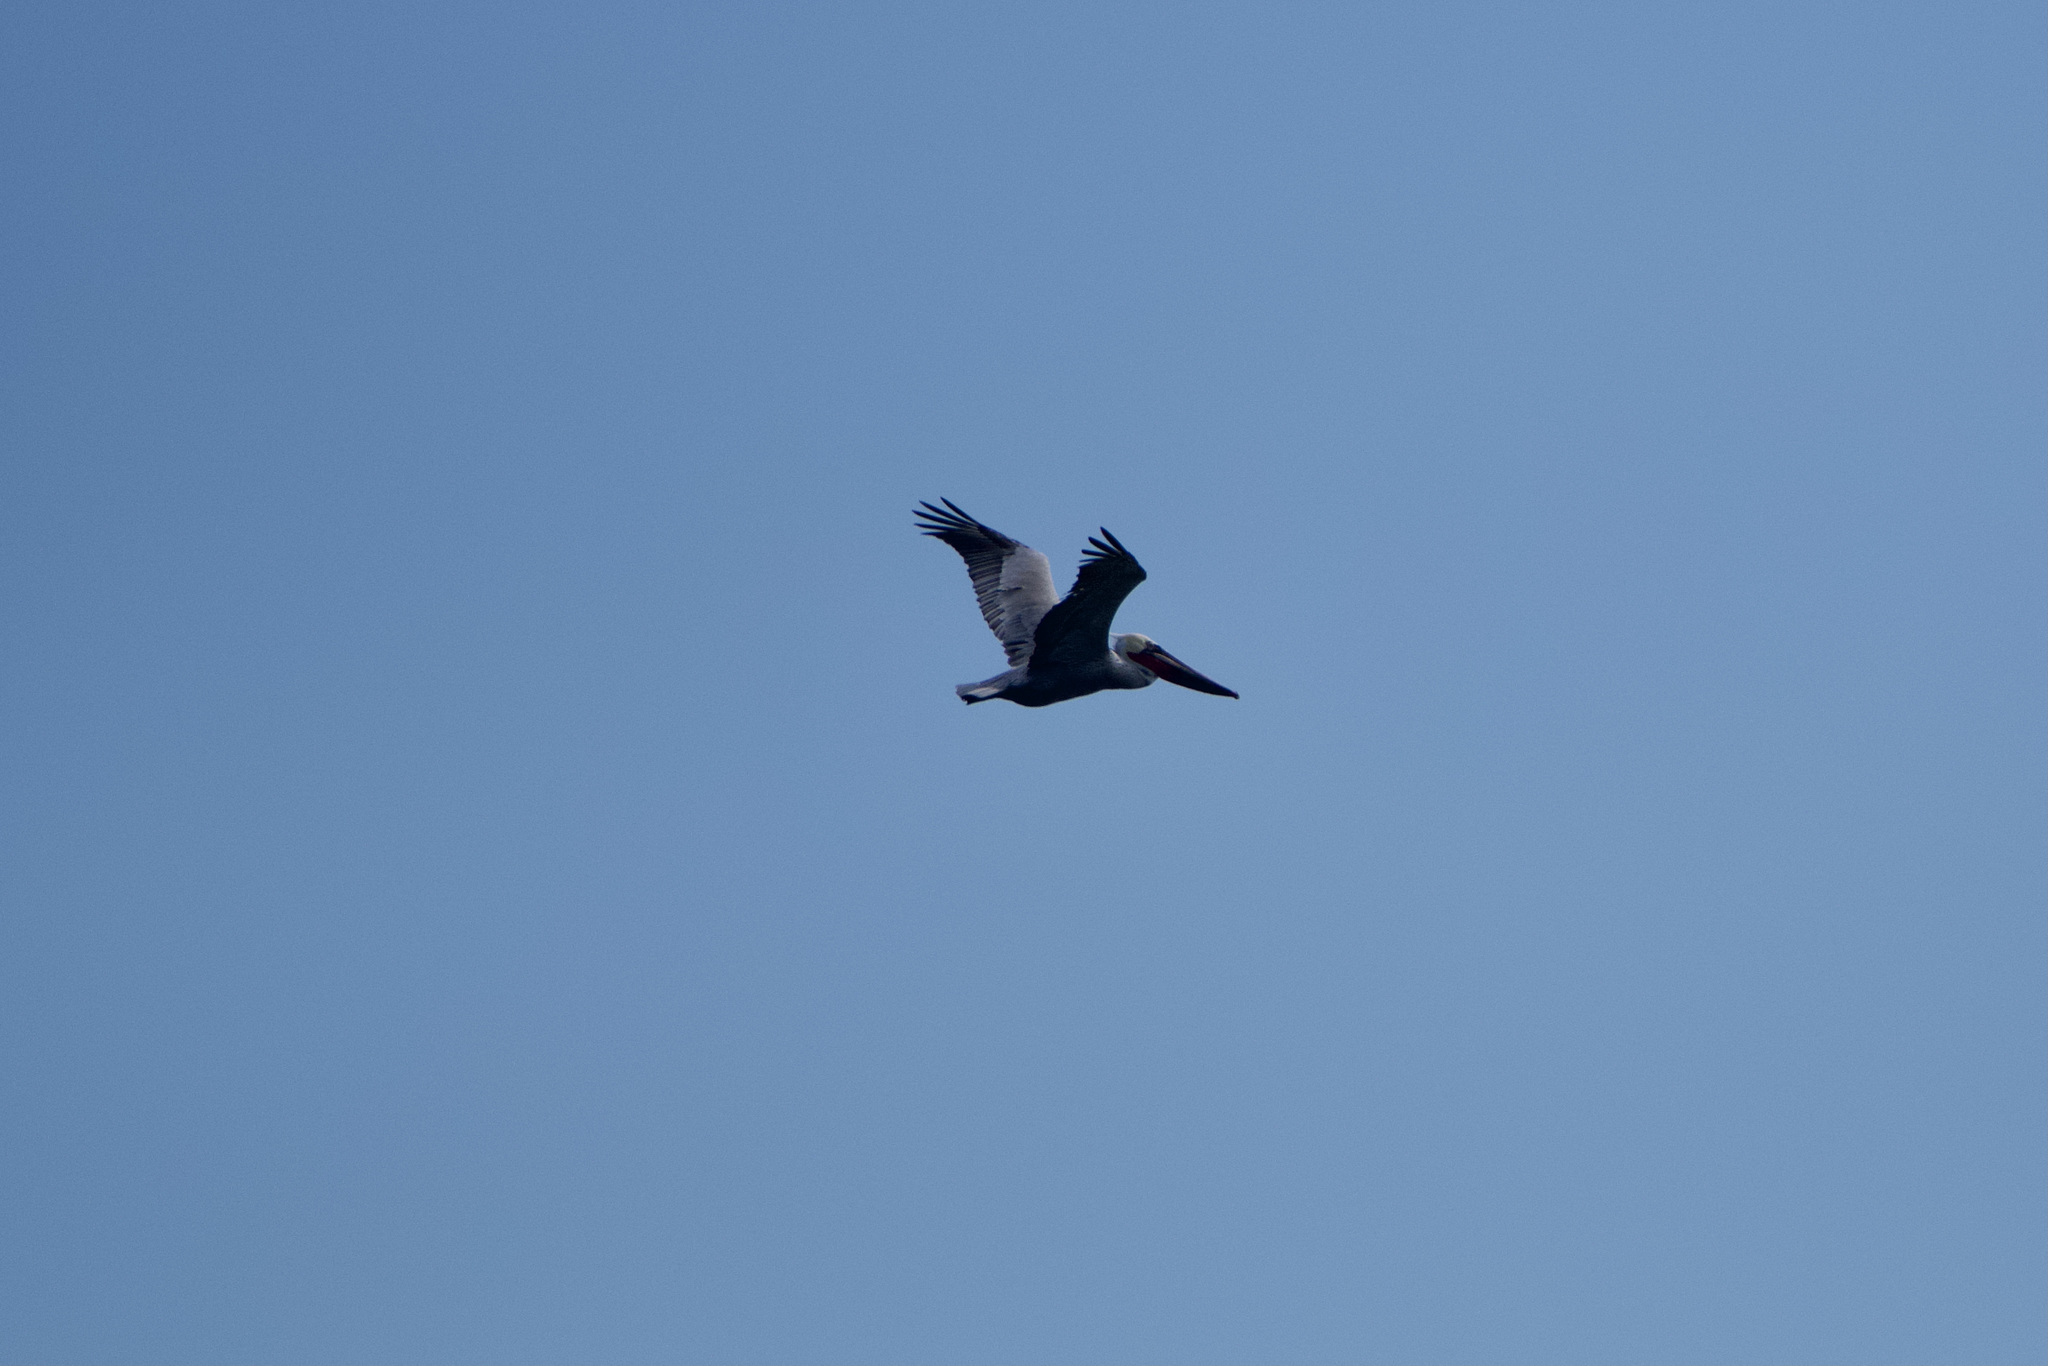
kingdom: Animalia
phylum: Chordata
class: Aves
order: Pelecaniformes
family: Pelecanidae
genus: Pelecanus
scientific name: Pelecanus occidentalis
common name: Brown pelican
